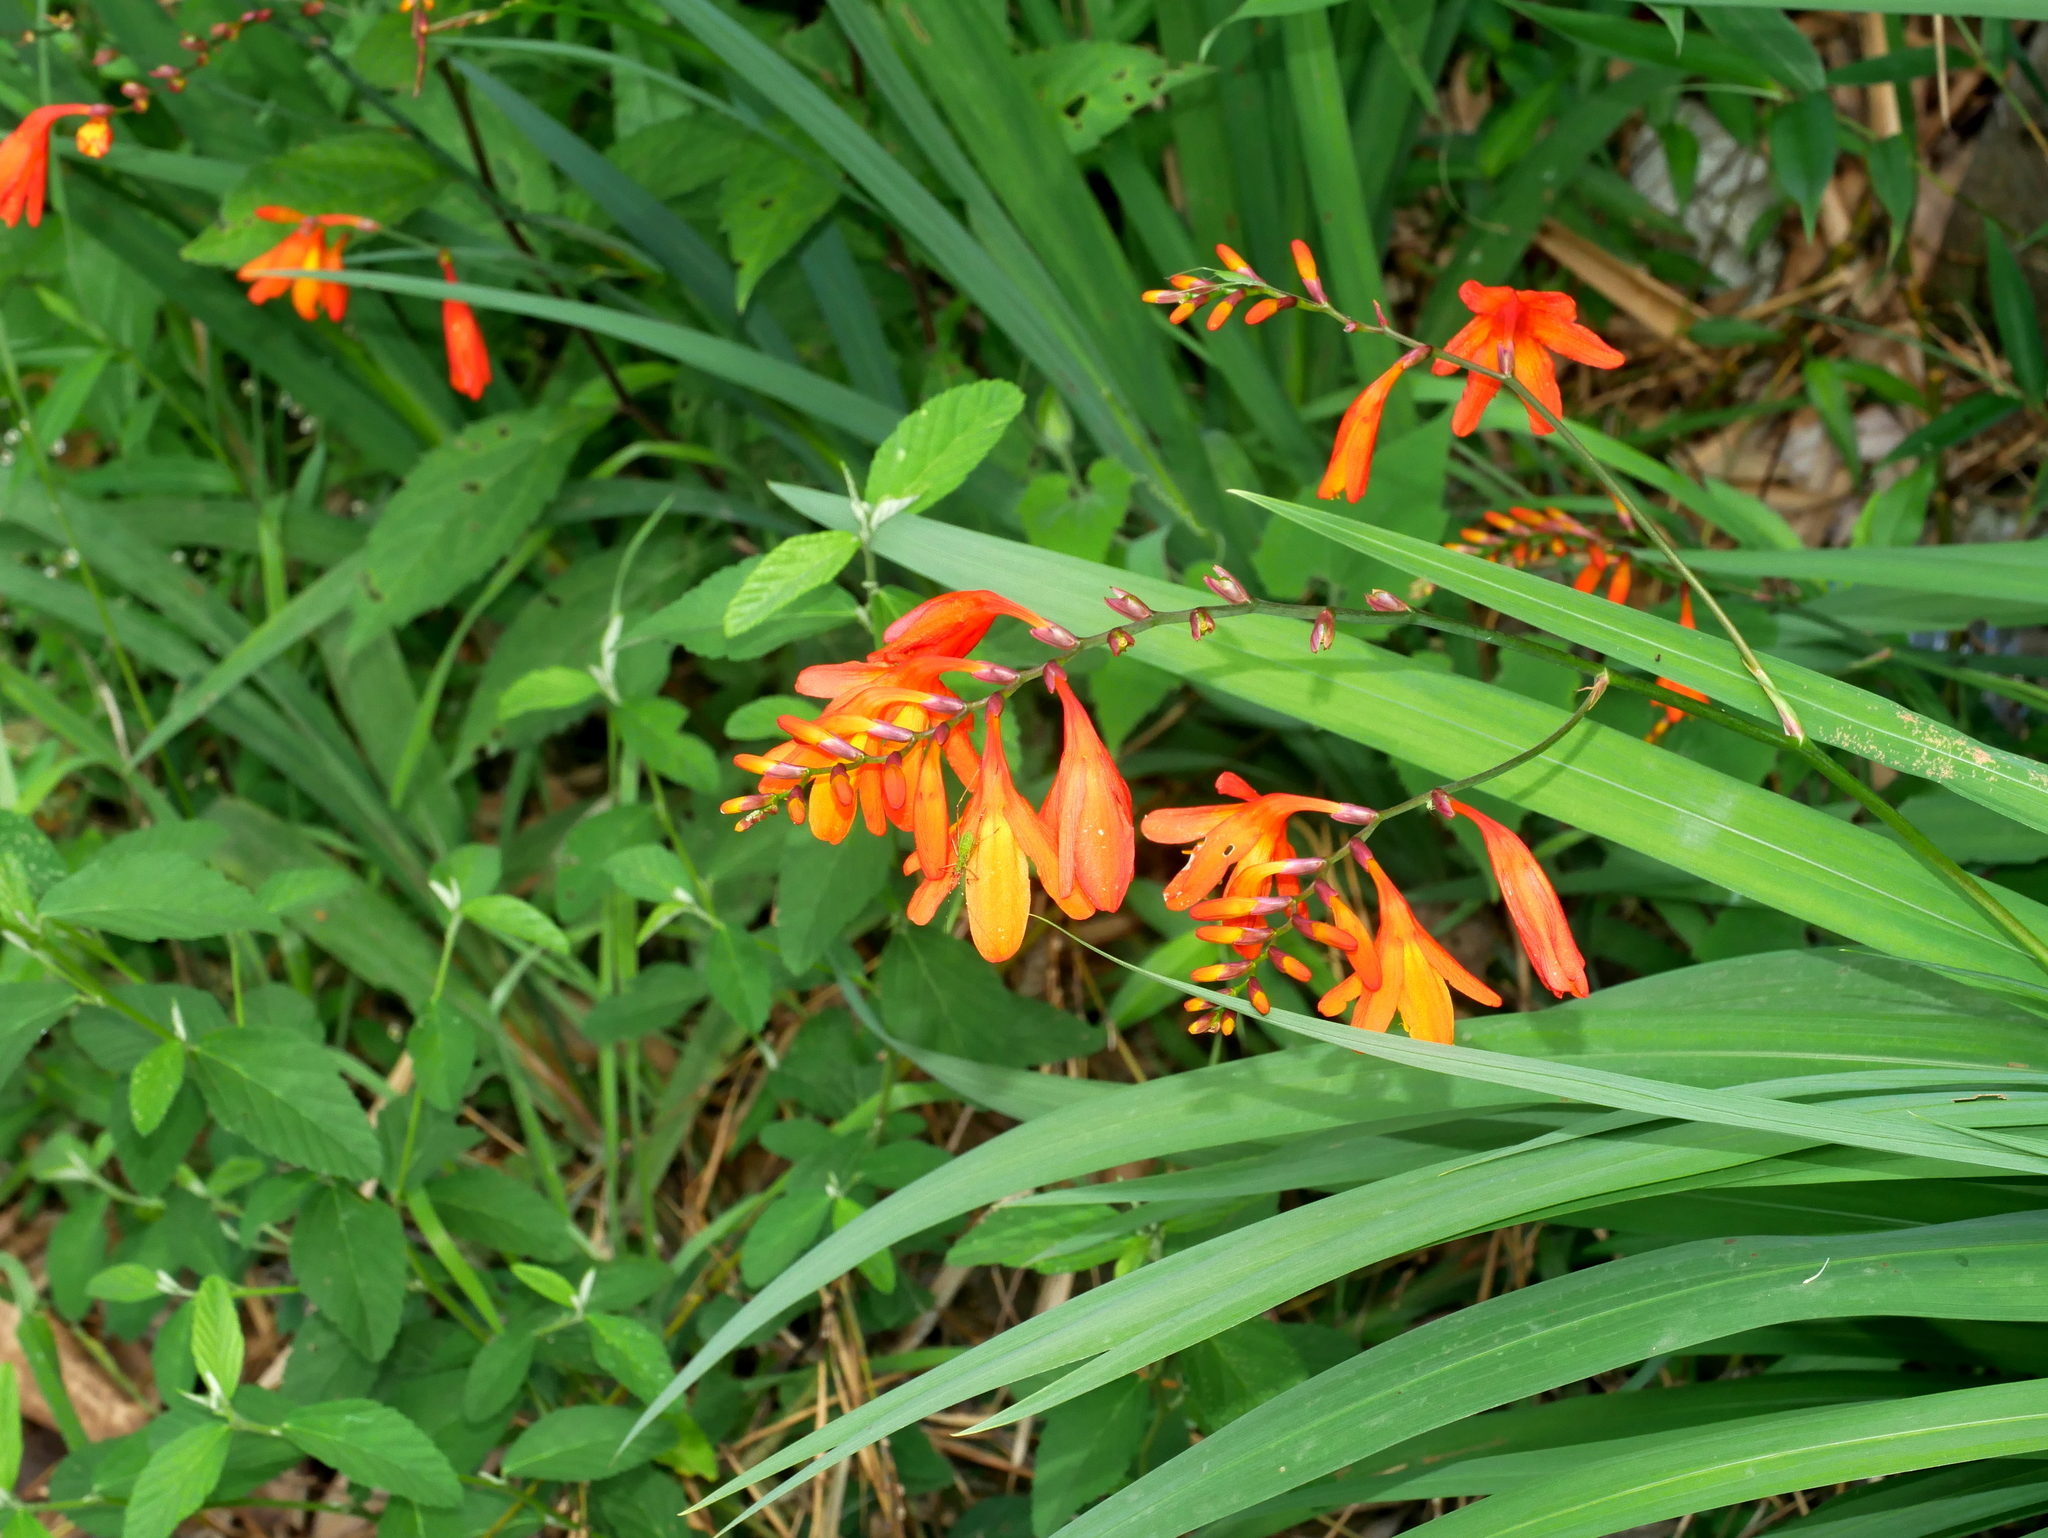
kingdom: Plantae
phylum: Tracheophyta
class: Liliopsida
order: Asparagales
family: Iridaceae
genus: Crocosmia
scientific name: Crocosmia crocosmiiflora
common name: Montbretia
